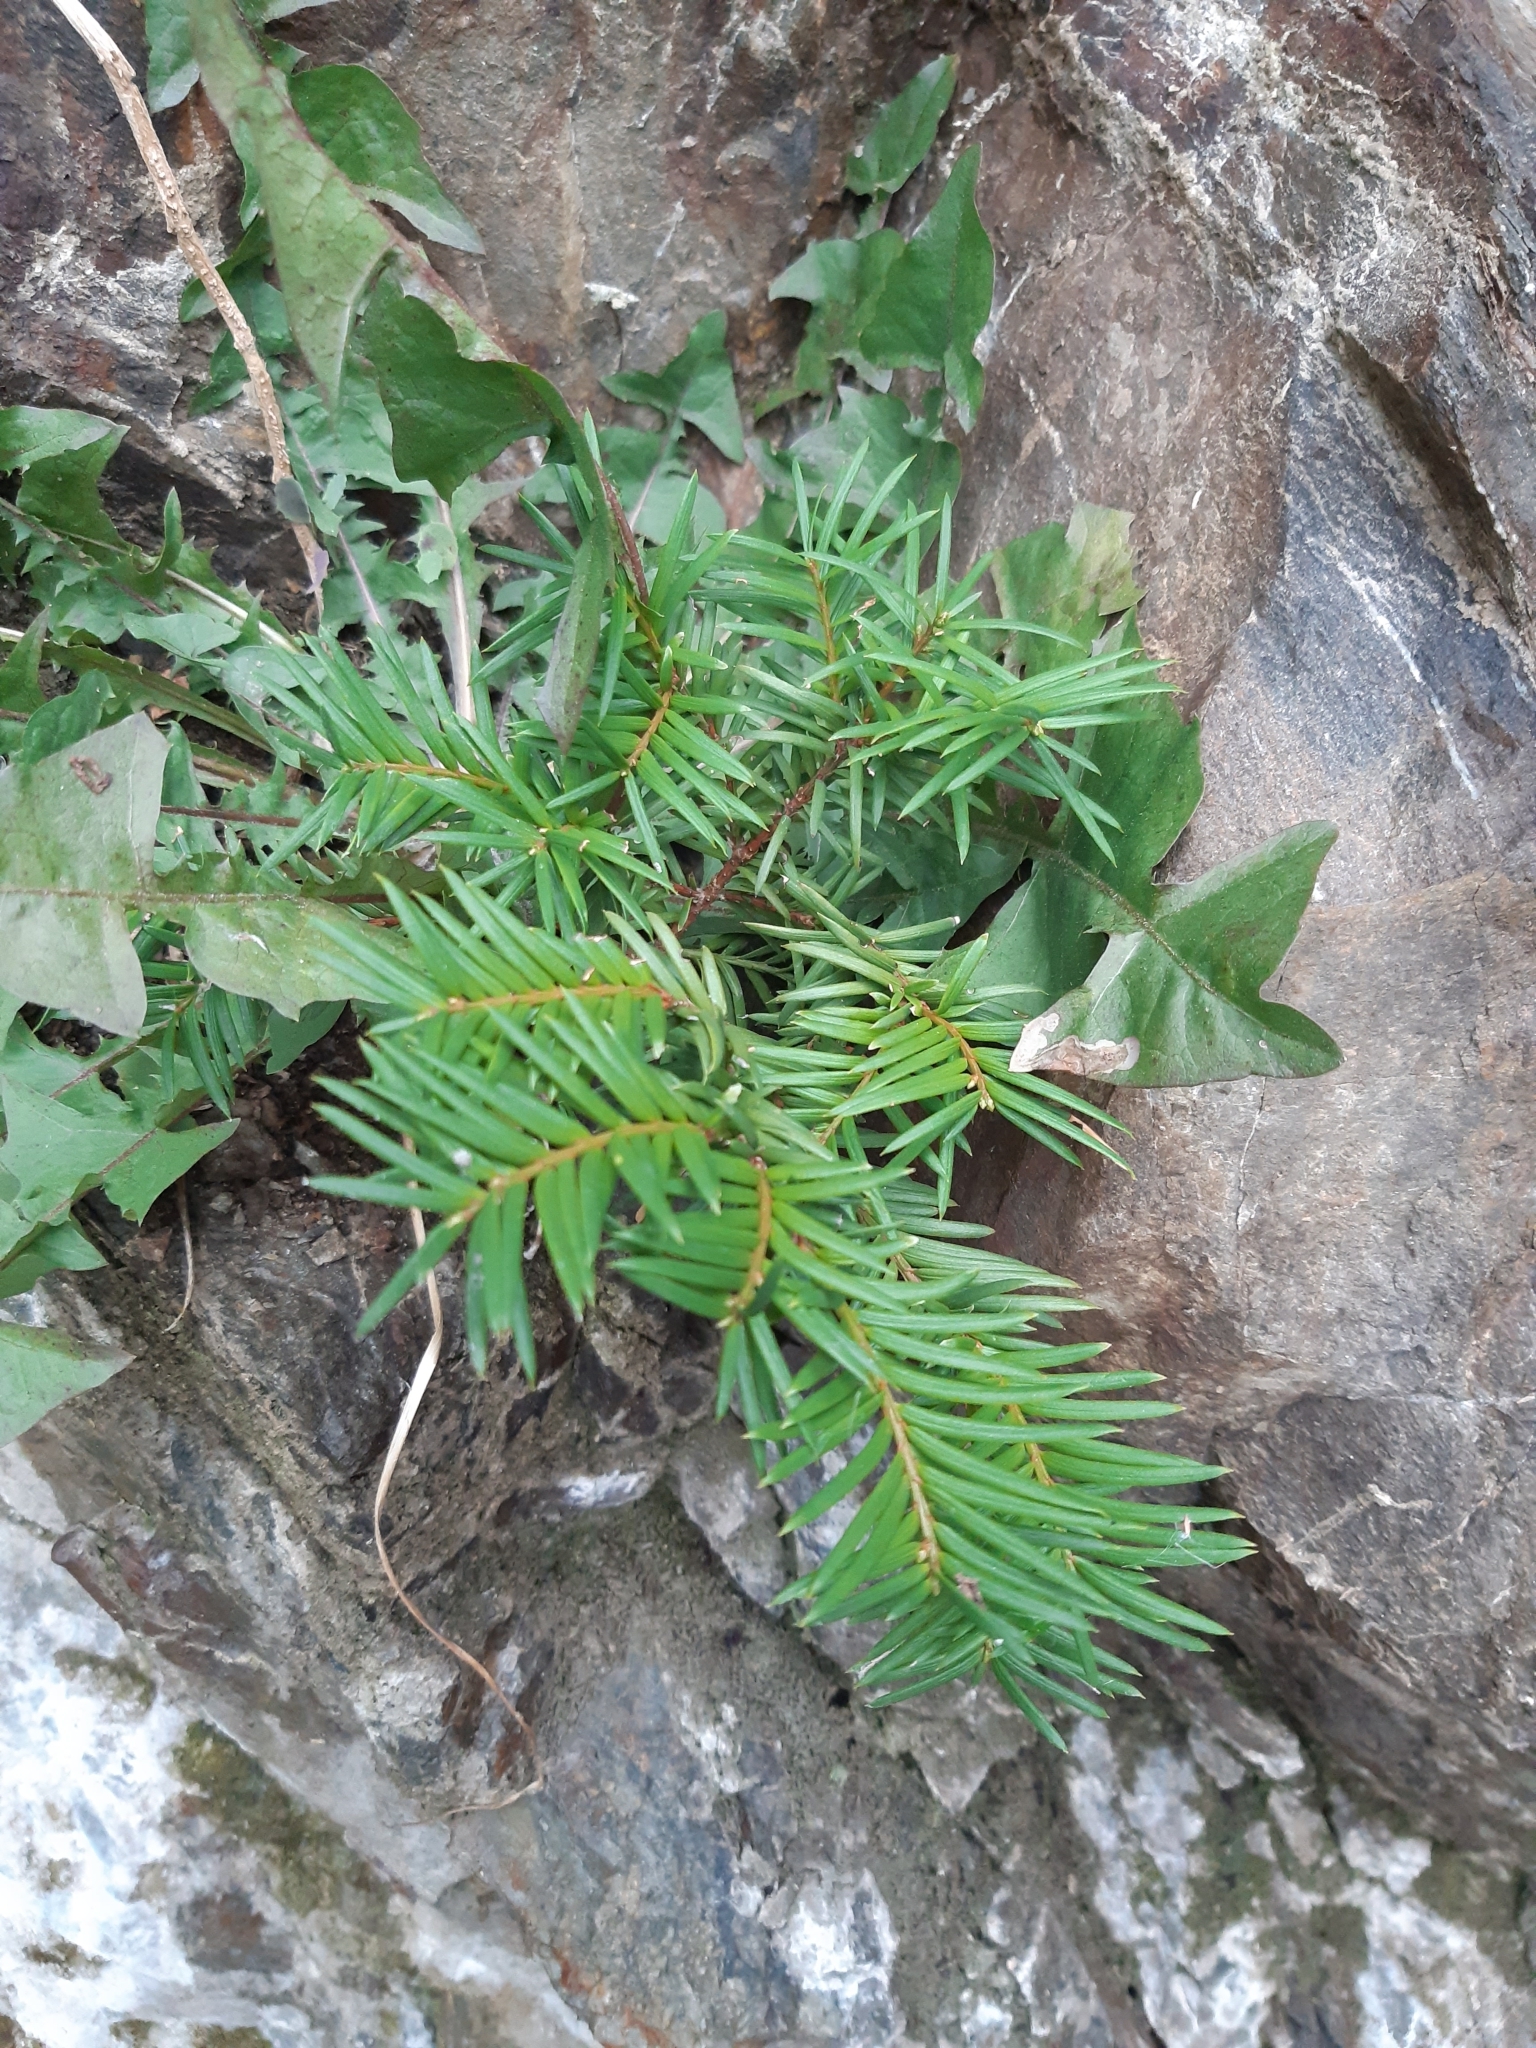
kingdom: Plantae
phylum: Tracheophyta
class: Pinopsida
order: Pinales
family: Taxaceae
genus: Taxus
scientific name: Taxus baccata
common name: Yew
